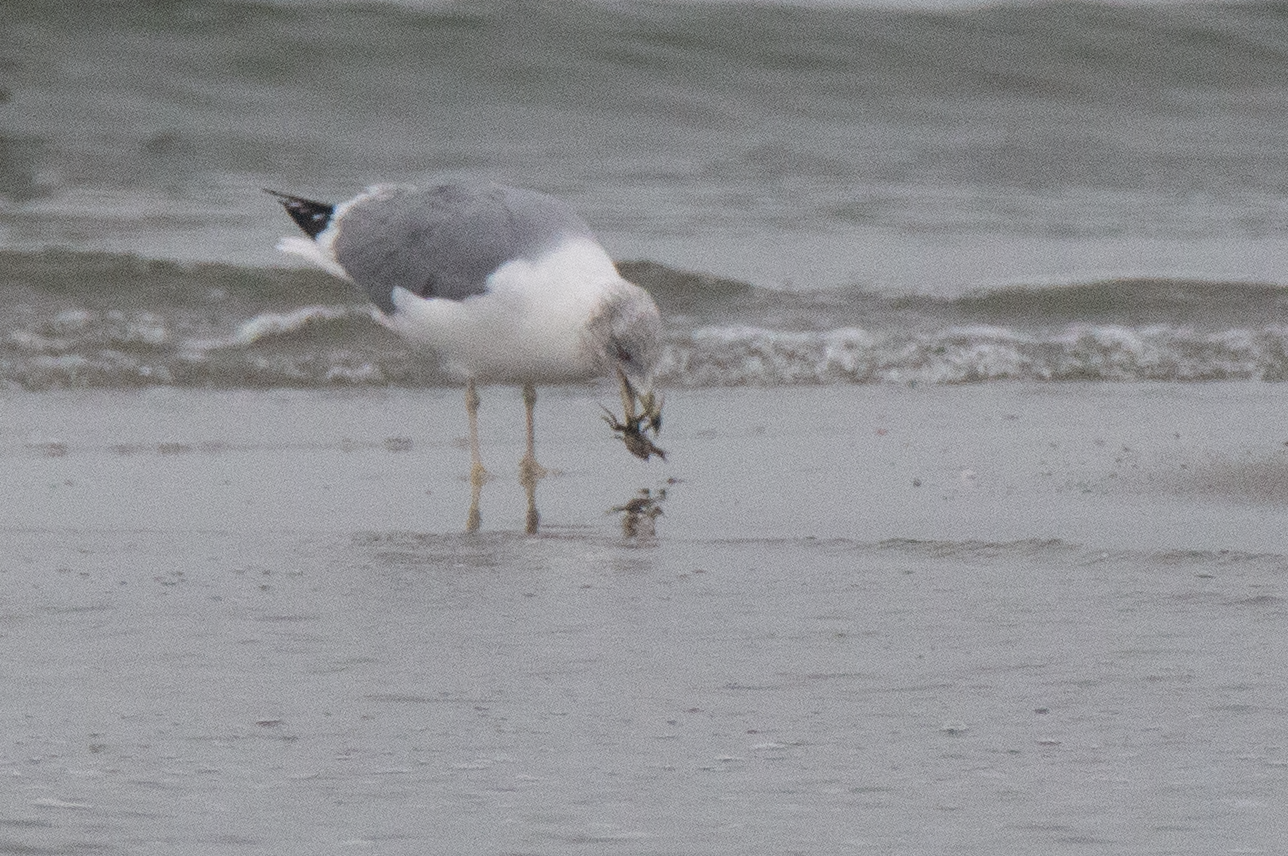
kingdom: Animalia
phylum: Chordata
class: Aves
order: Charadriiformes
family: Laridae
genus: Larus
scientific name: Larus michahellis
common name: Yellow-legged gull
